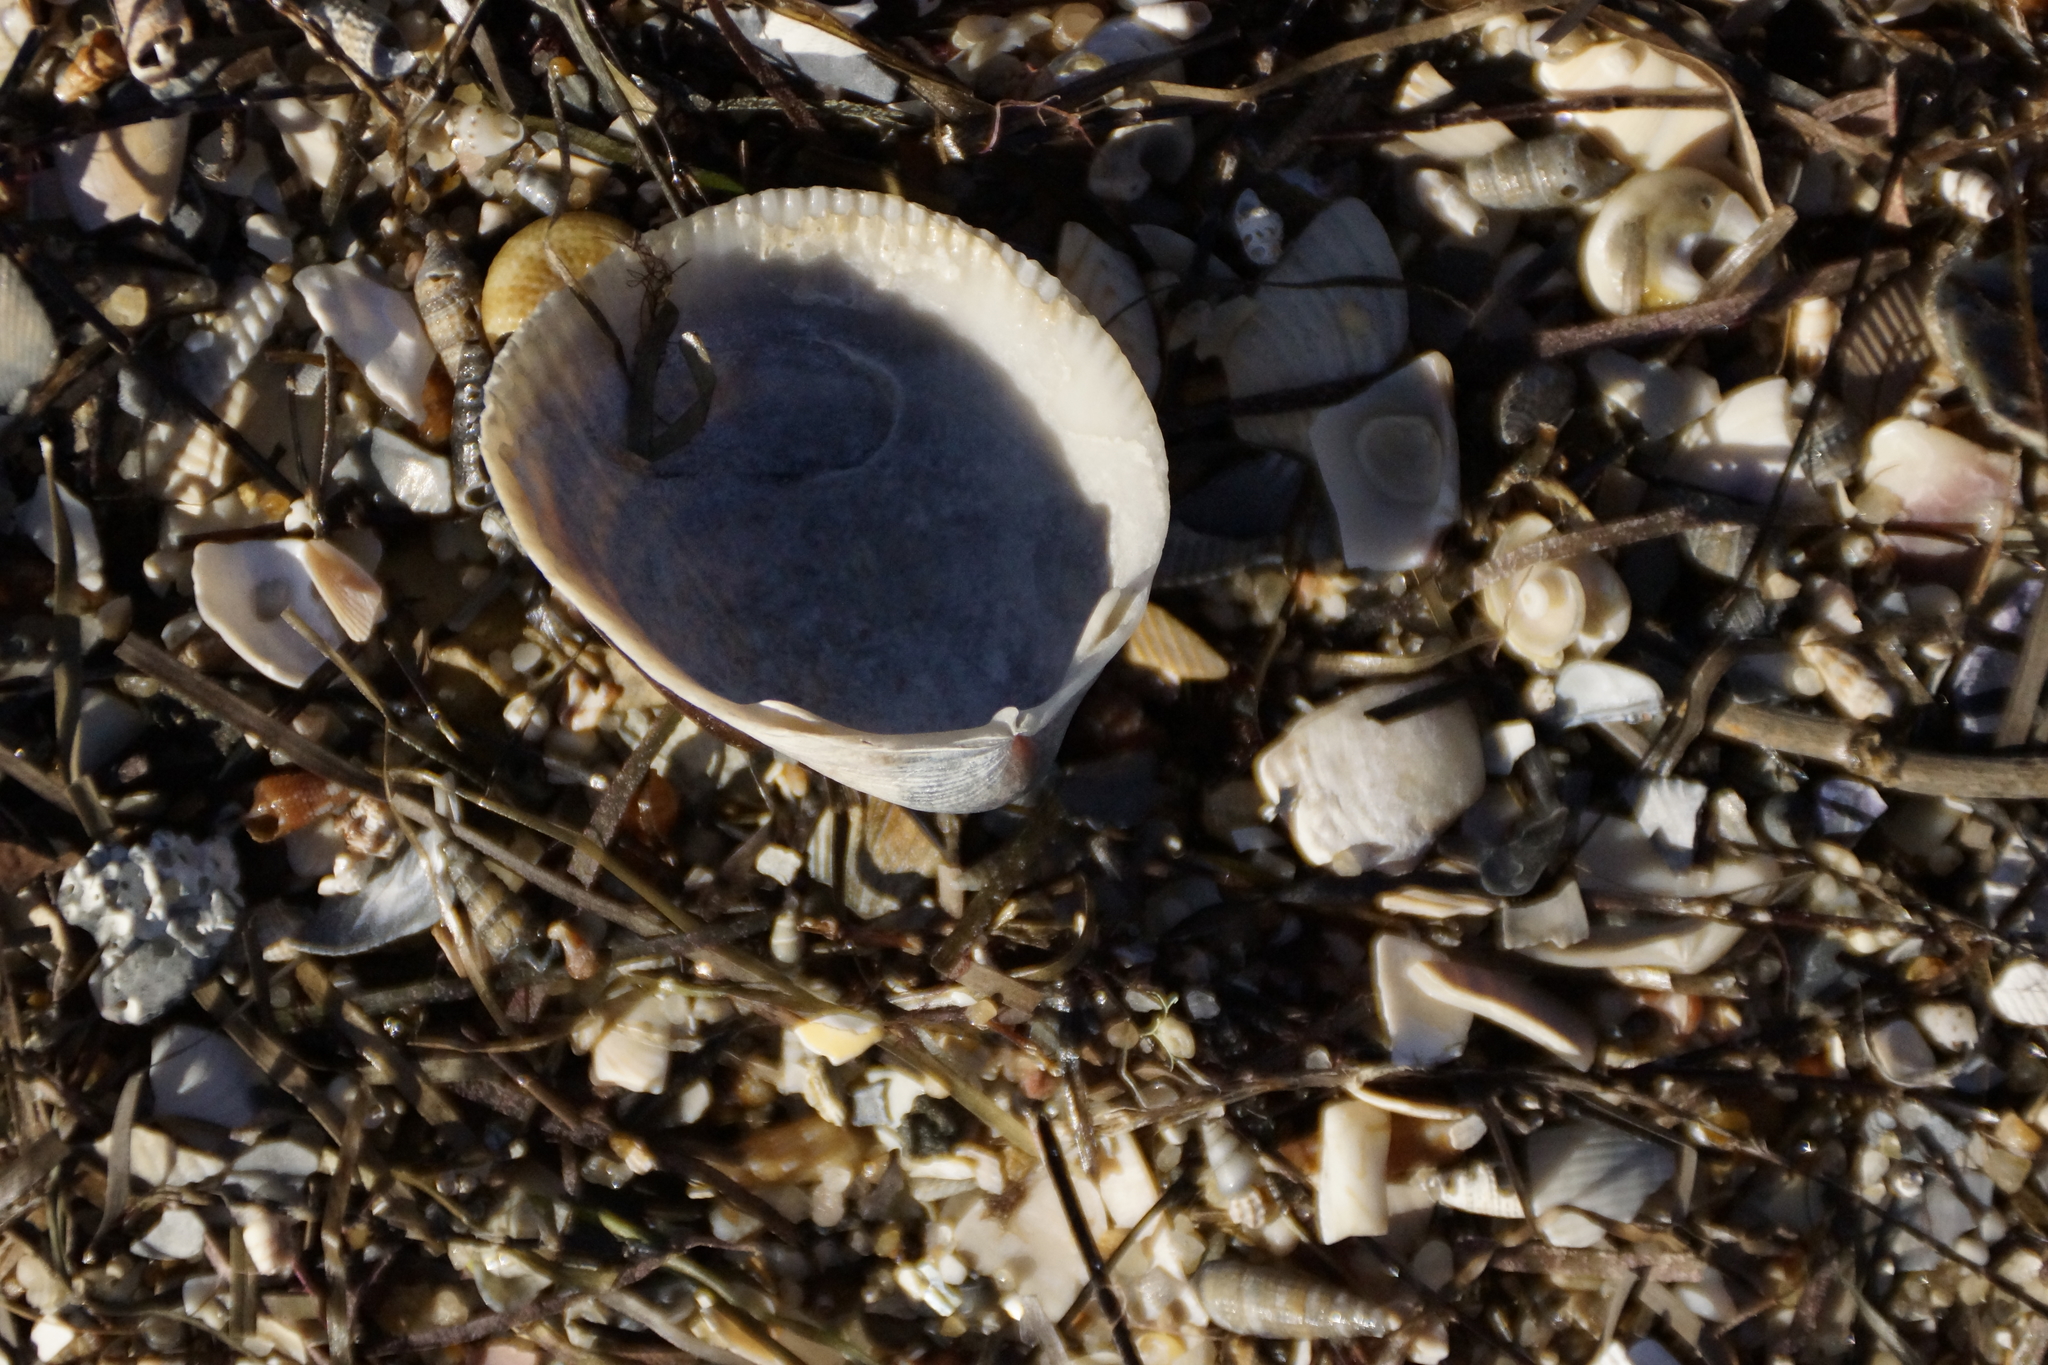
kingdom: Animalia
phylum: Mollusca
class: Bivalvia
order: Cardiida
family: Cardiidae
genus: Fulvia
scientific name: Fulvia tenuicostata
